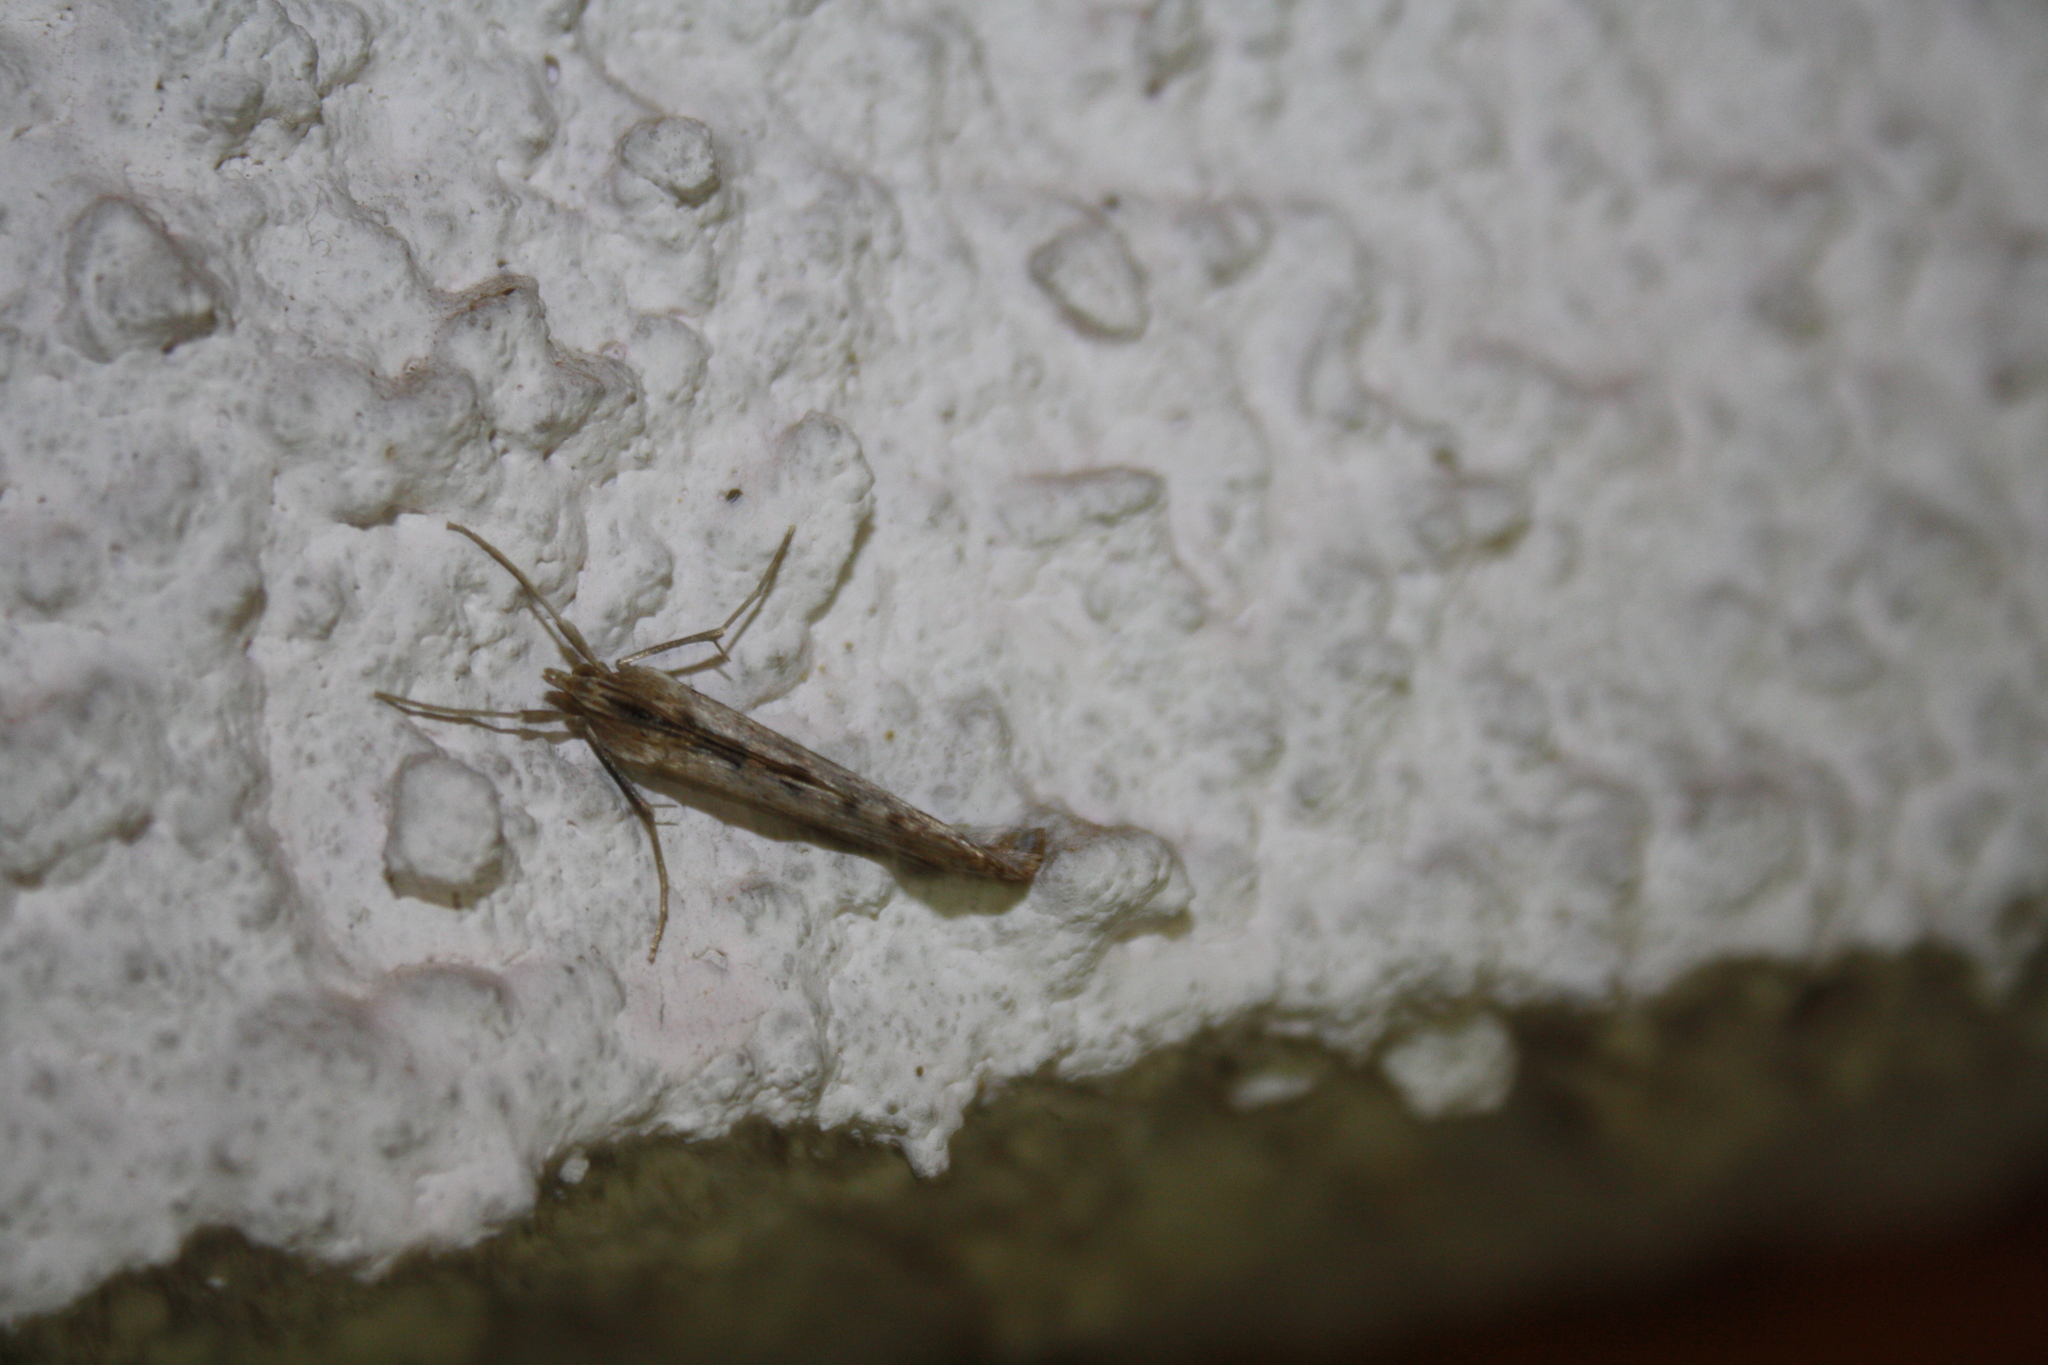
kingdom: Animalia
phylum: Arthropoda
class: Insecta
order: Lepidoptera
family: Crambidae
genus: Evergestis
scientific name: Evergestis isatidalis
